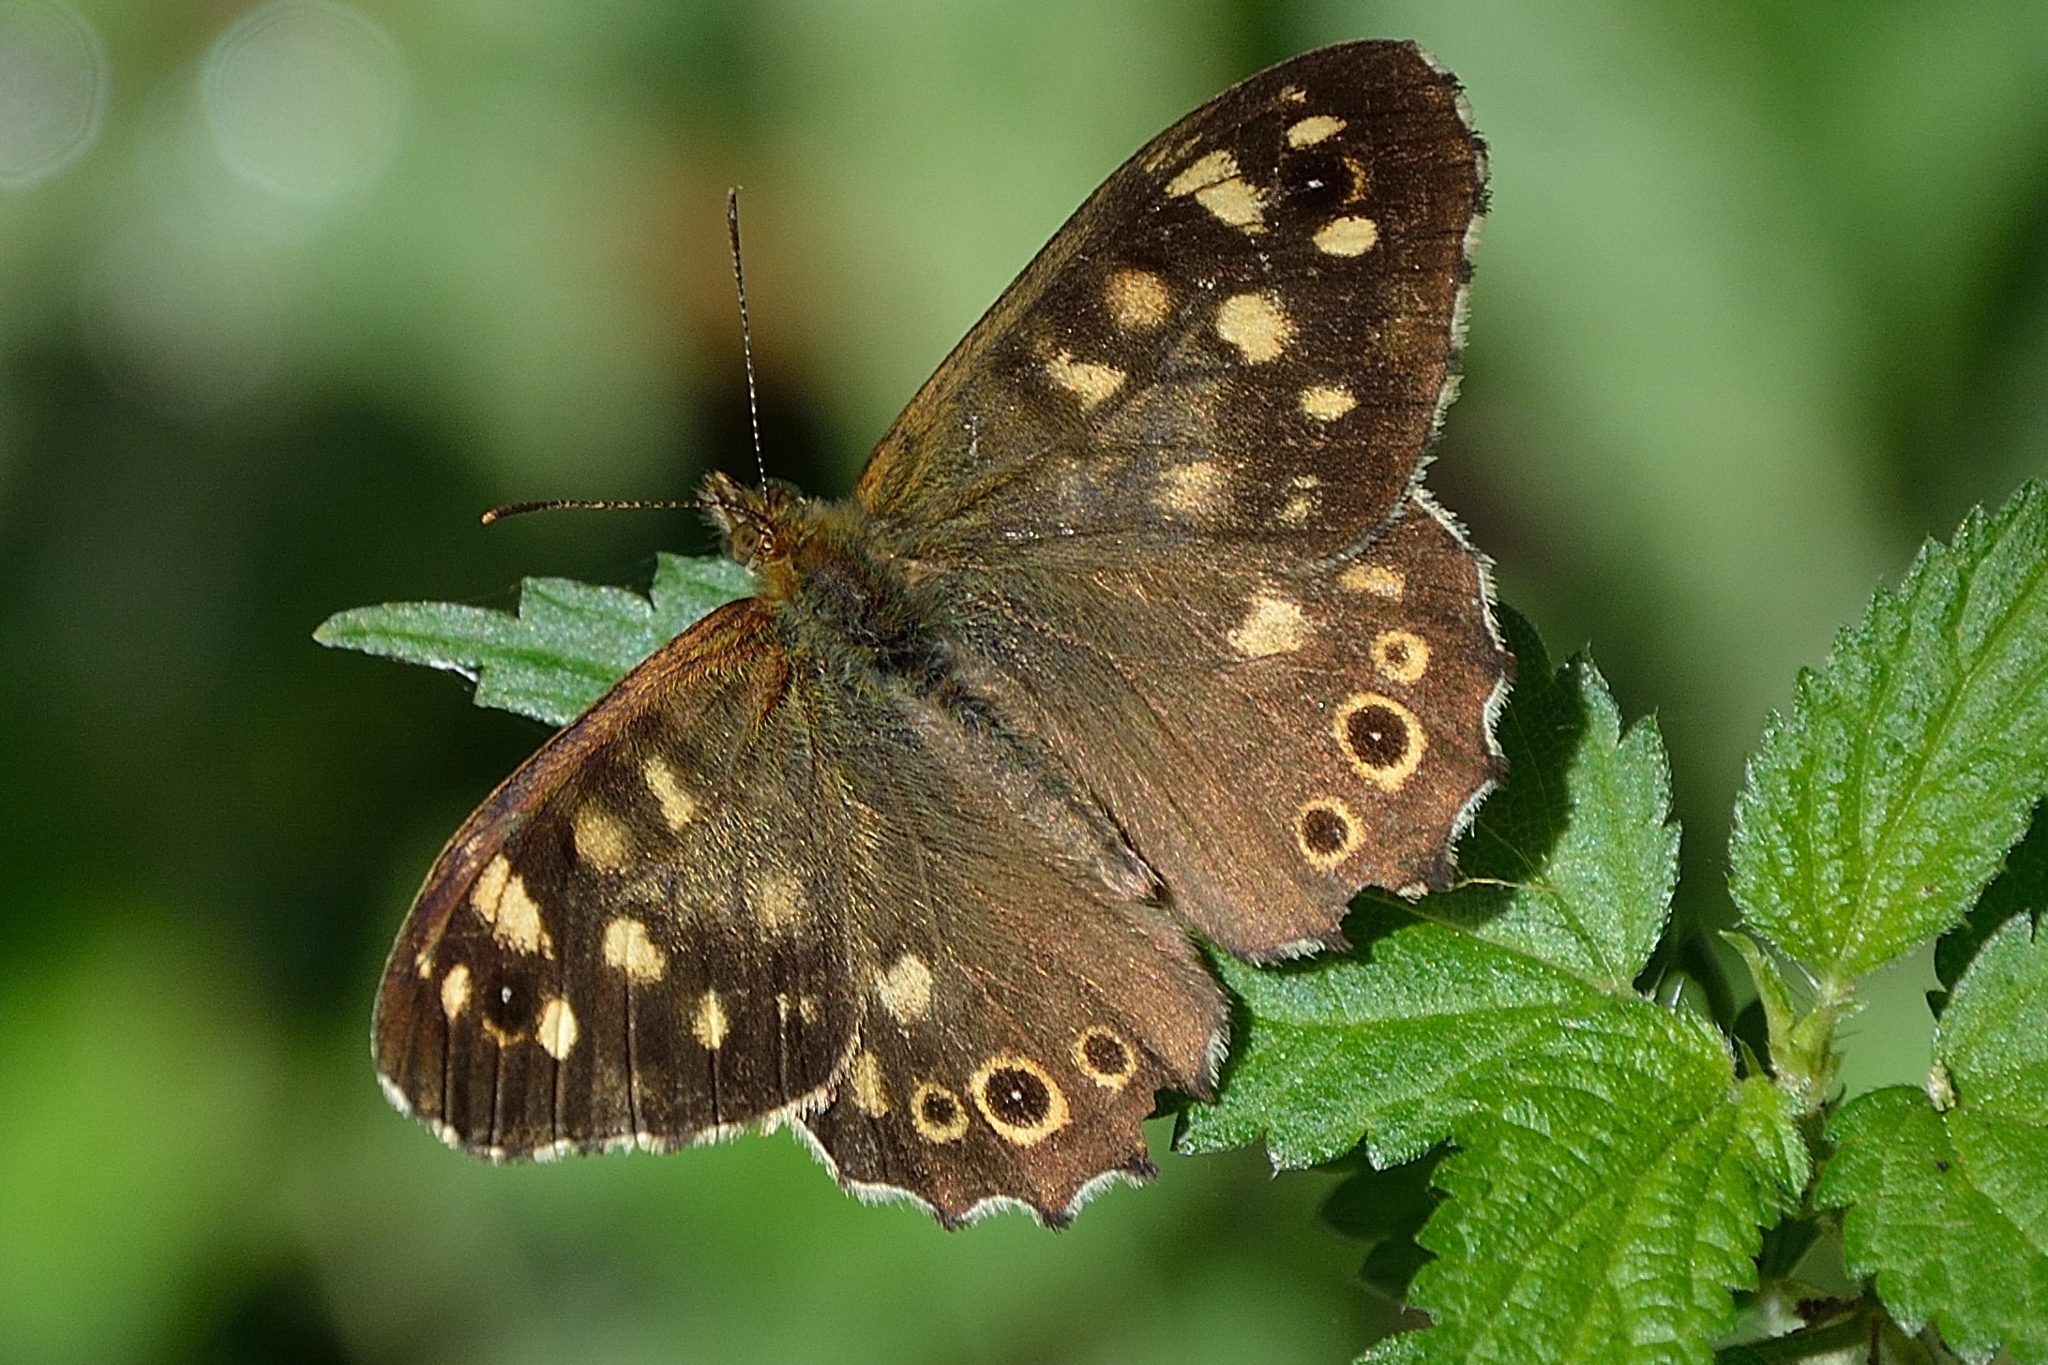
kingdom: Animalia
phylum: Arthropoda
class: Insecta
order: Lepidoptera
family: Nymphalidae
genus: Pararge
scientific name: Pararge aegeria
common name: Speckled wood
